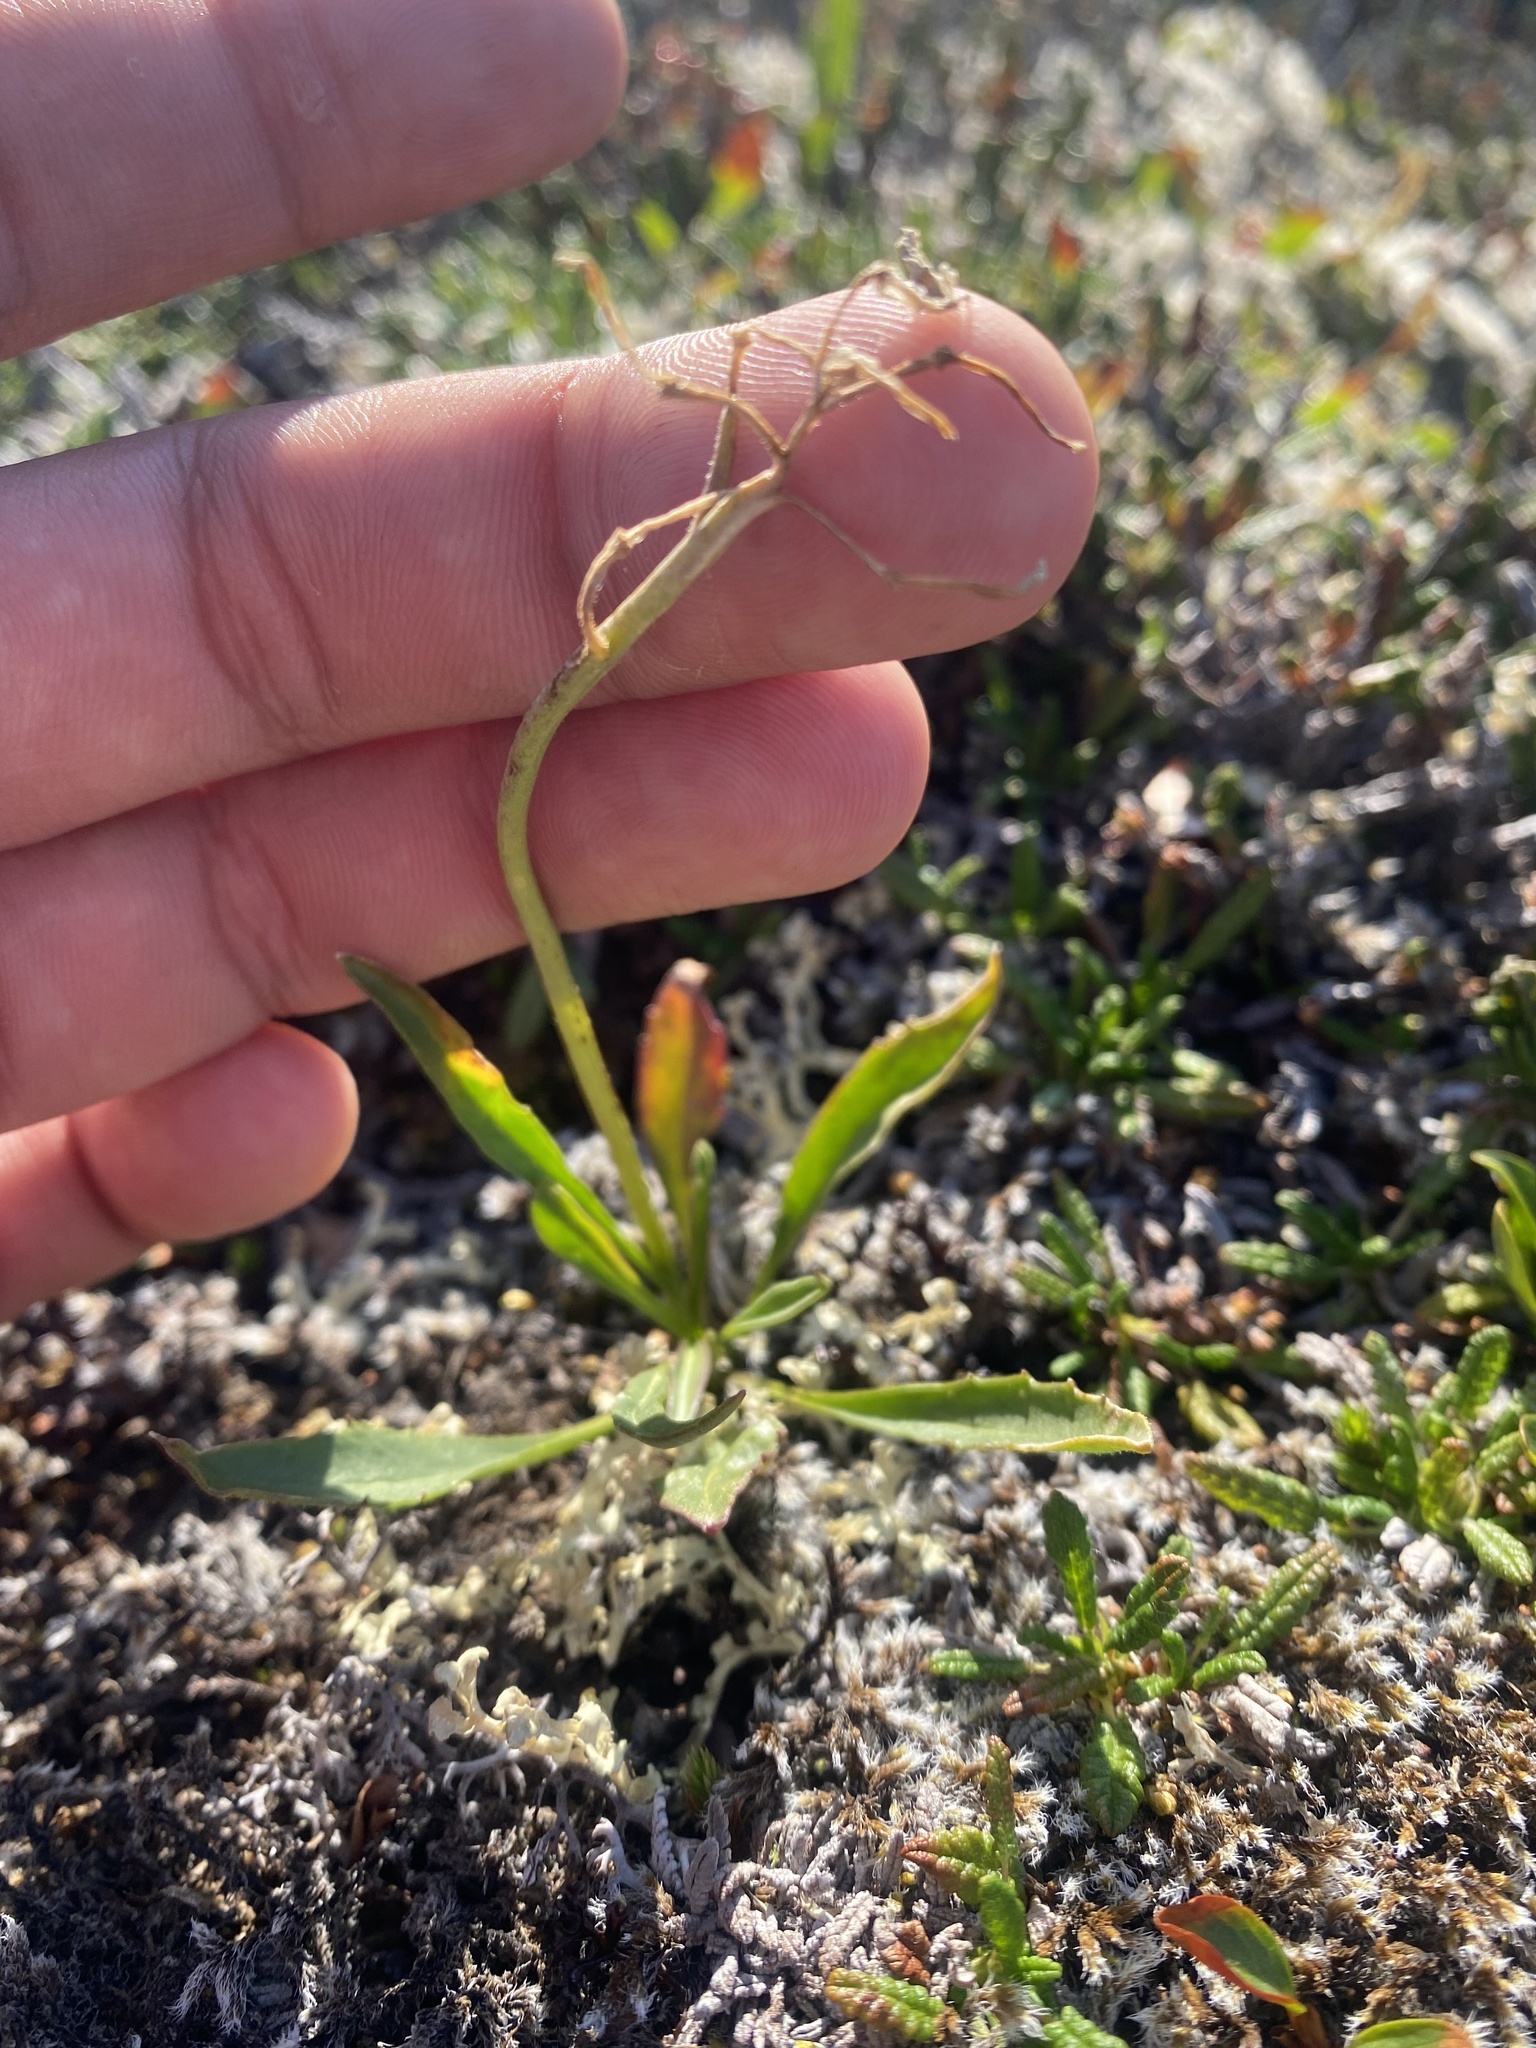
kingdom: Plantae
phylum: Tracheophyta
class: Magnoliopsida
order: Brassicales
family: Brassicaceae
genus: Parrya
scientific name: Parrya nudicaulis
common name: Naked-stemmed false wallflower
